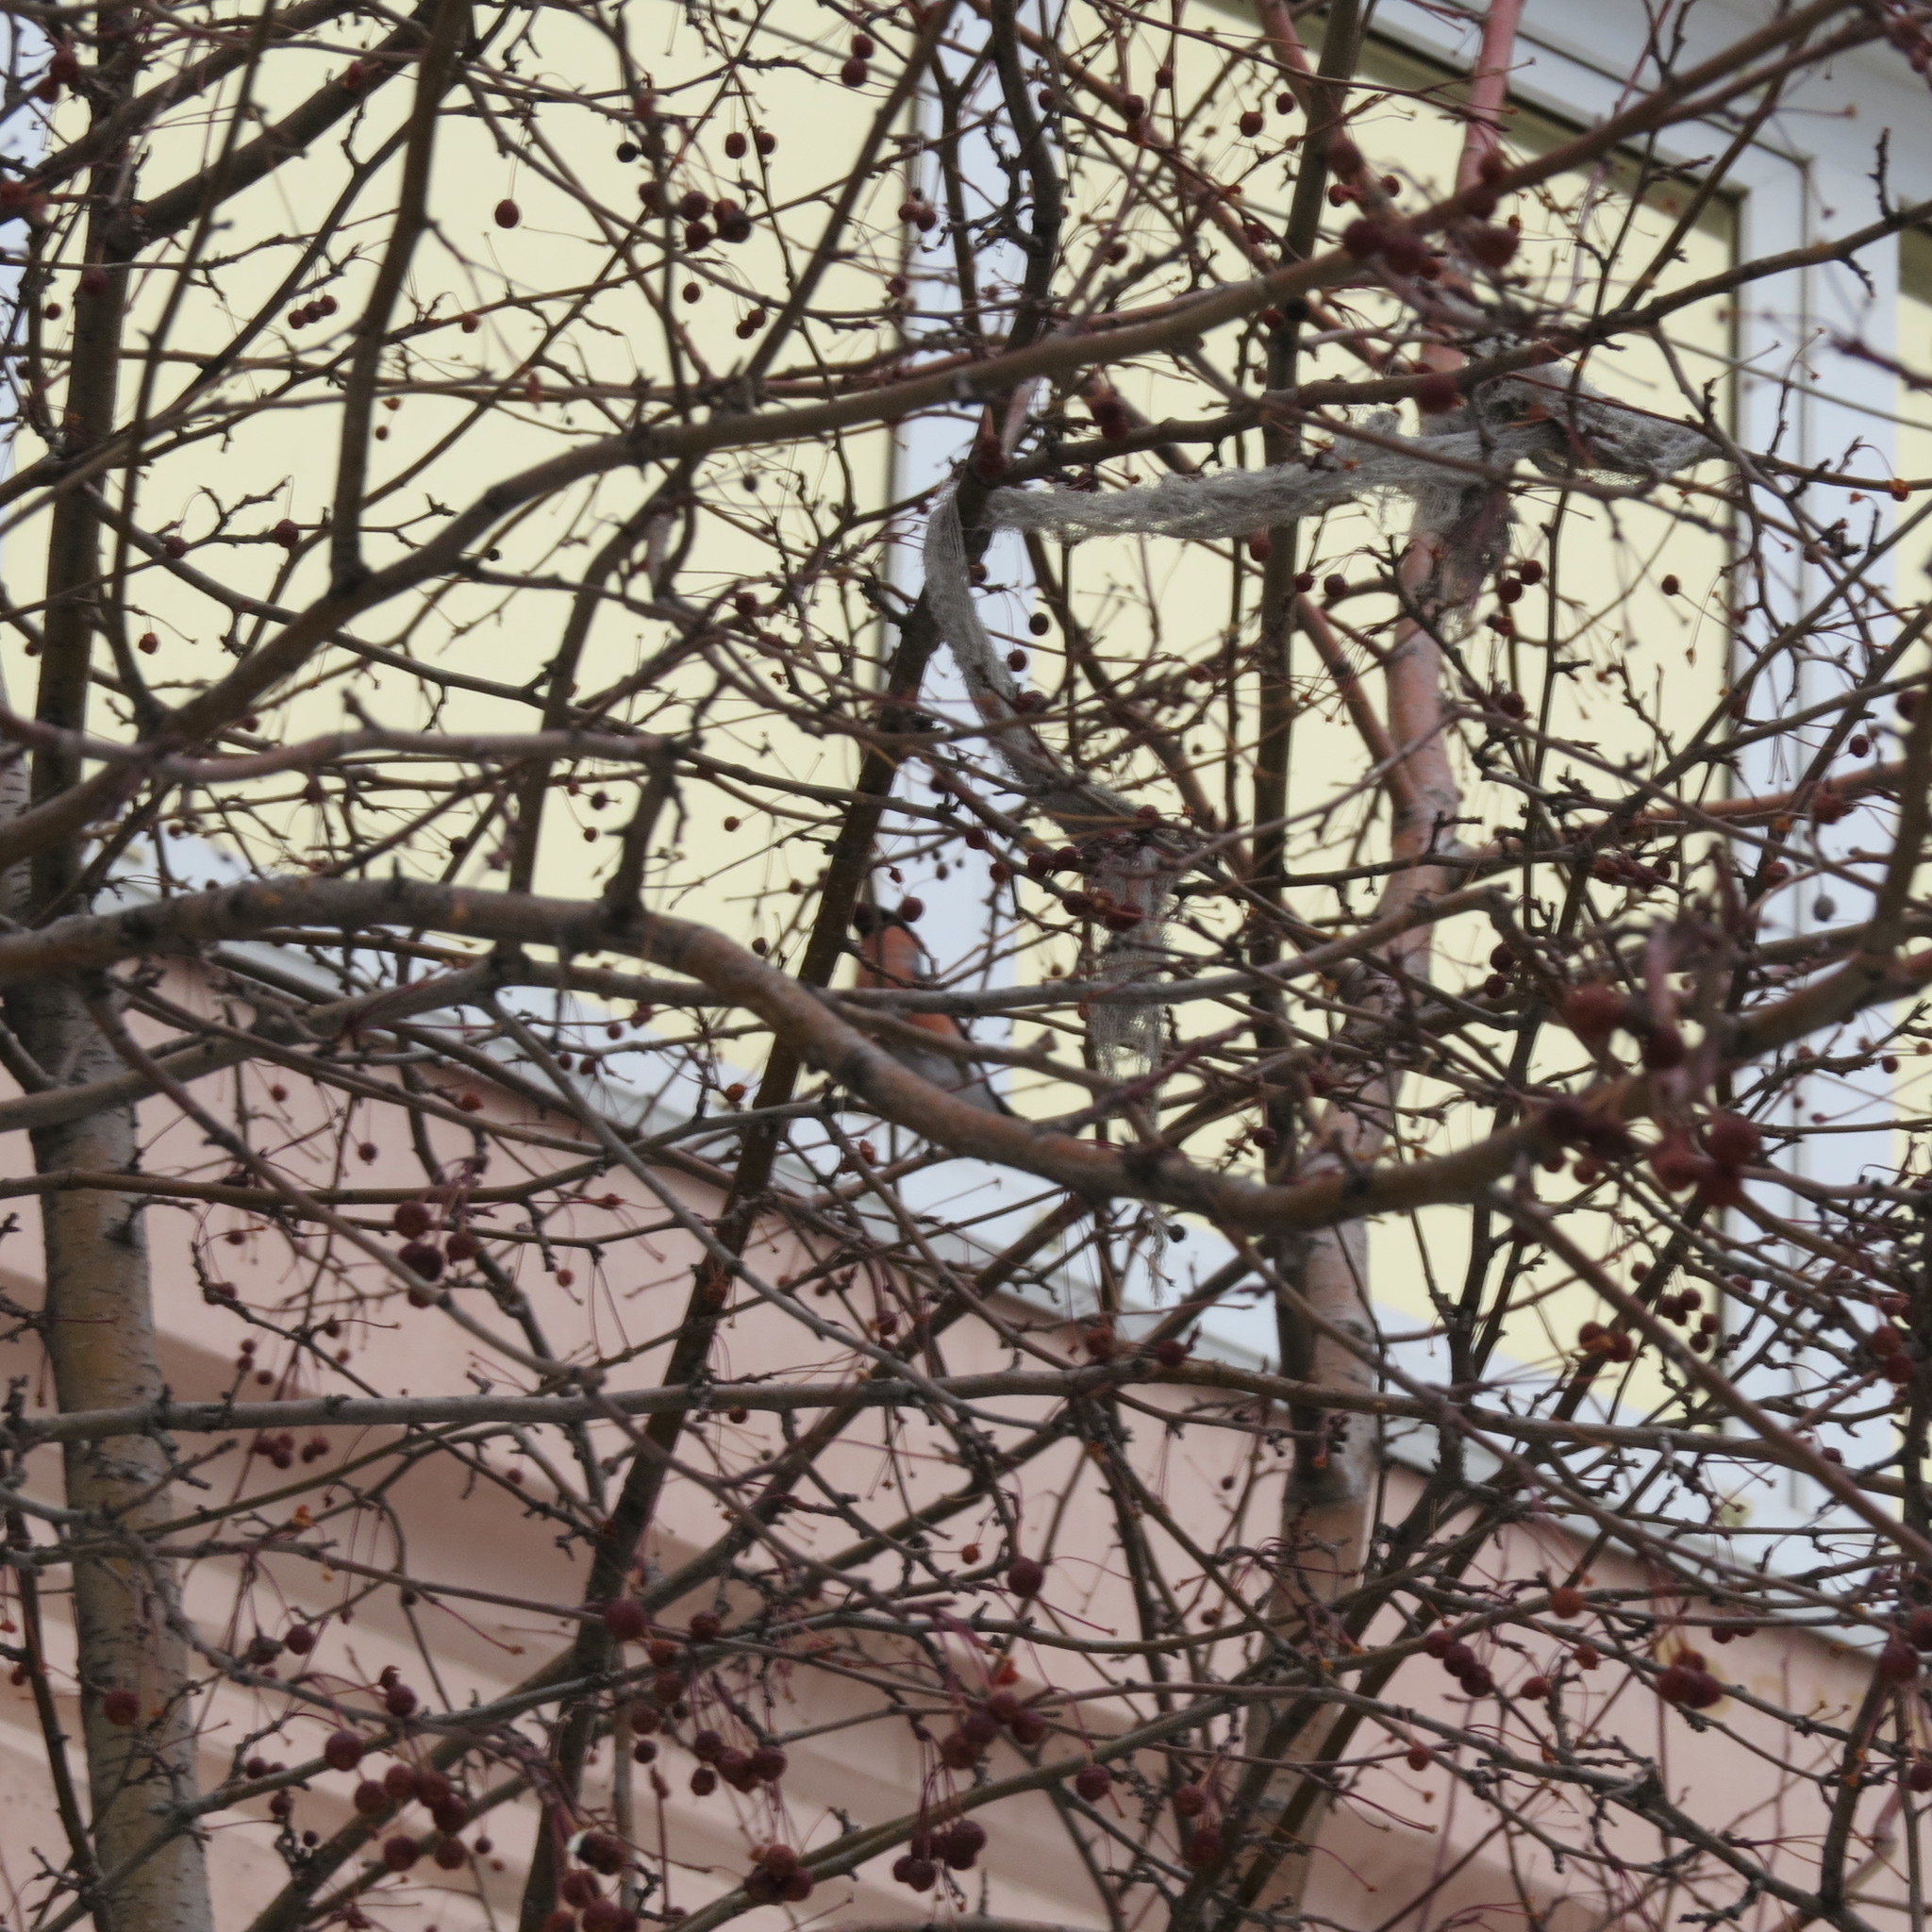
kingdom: Animalia
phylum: Chordata
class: Aves
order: Passeriformes
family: Fringillidae
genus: Pyrrhula
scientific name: Pyrrhula pyrrhula
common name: Eurasian bullfinch
